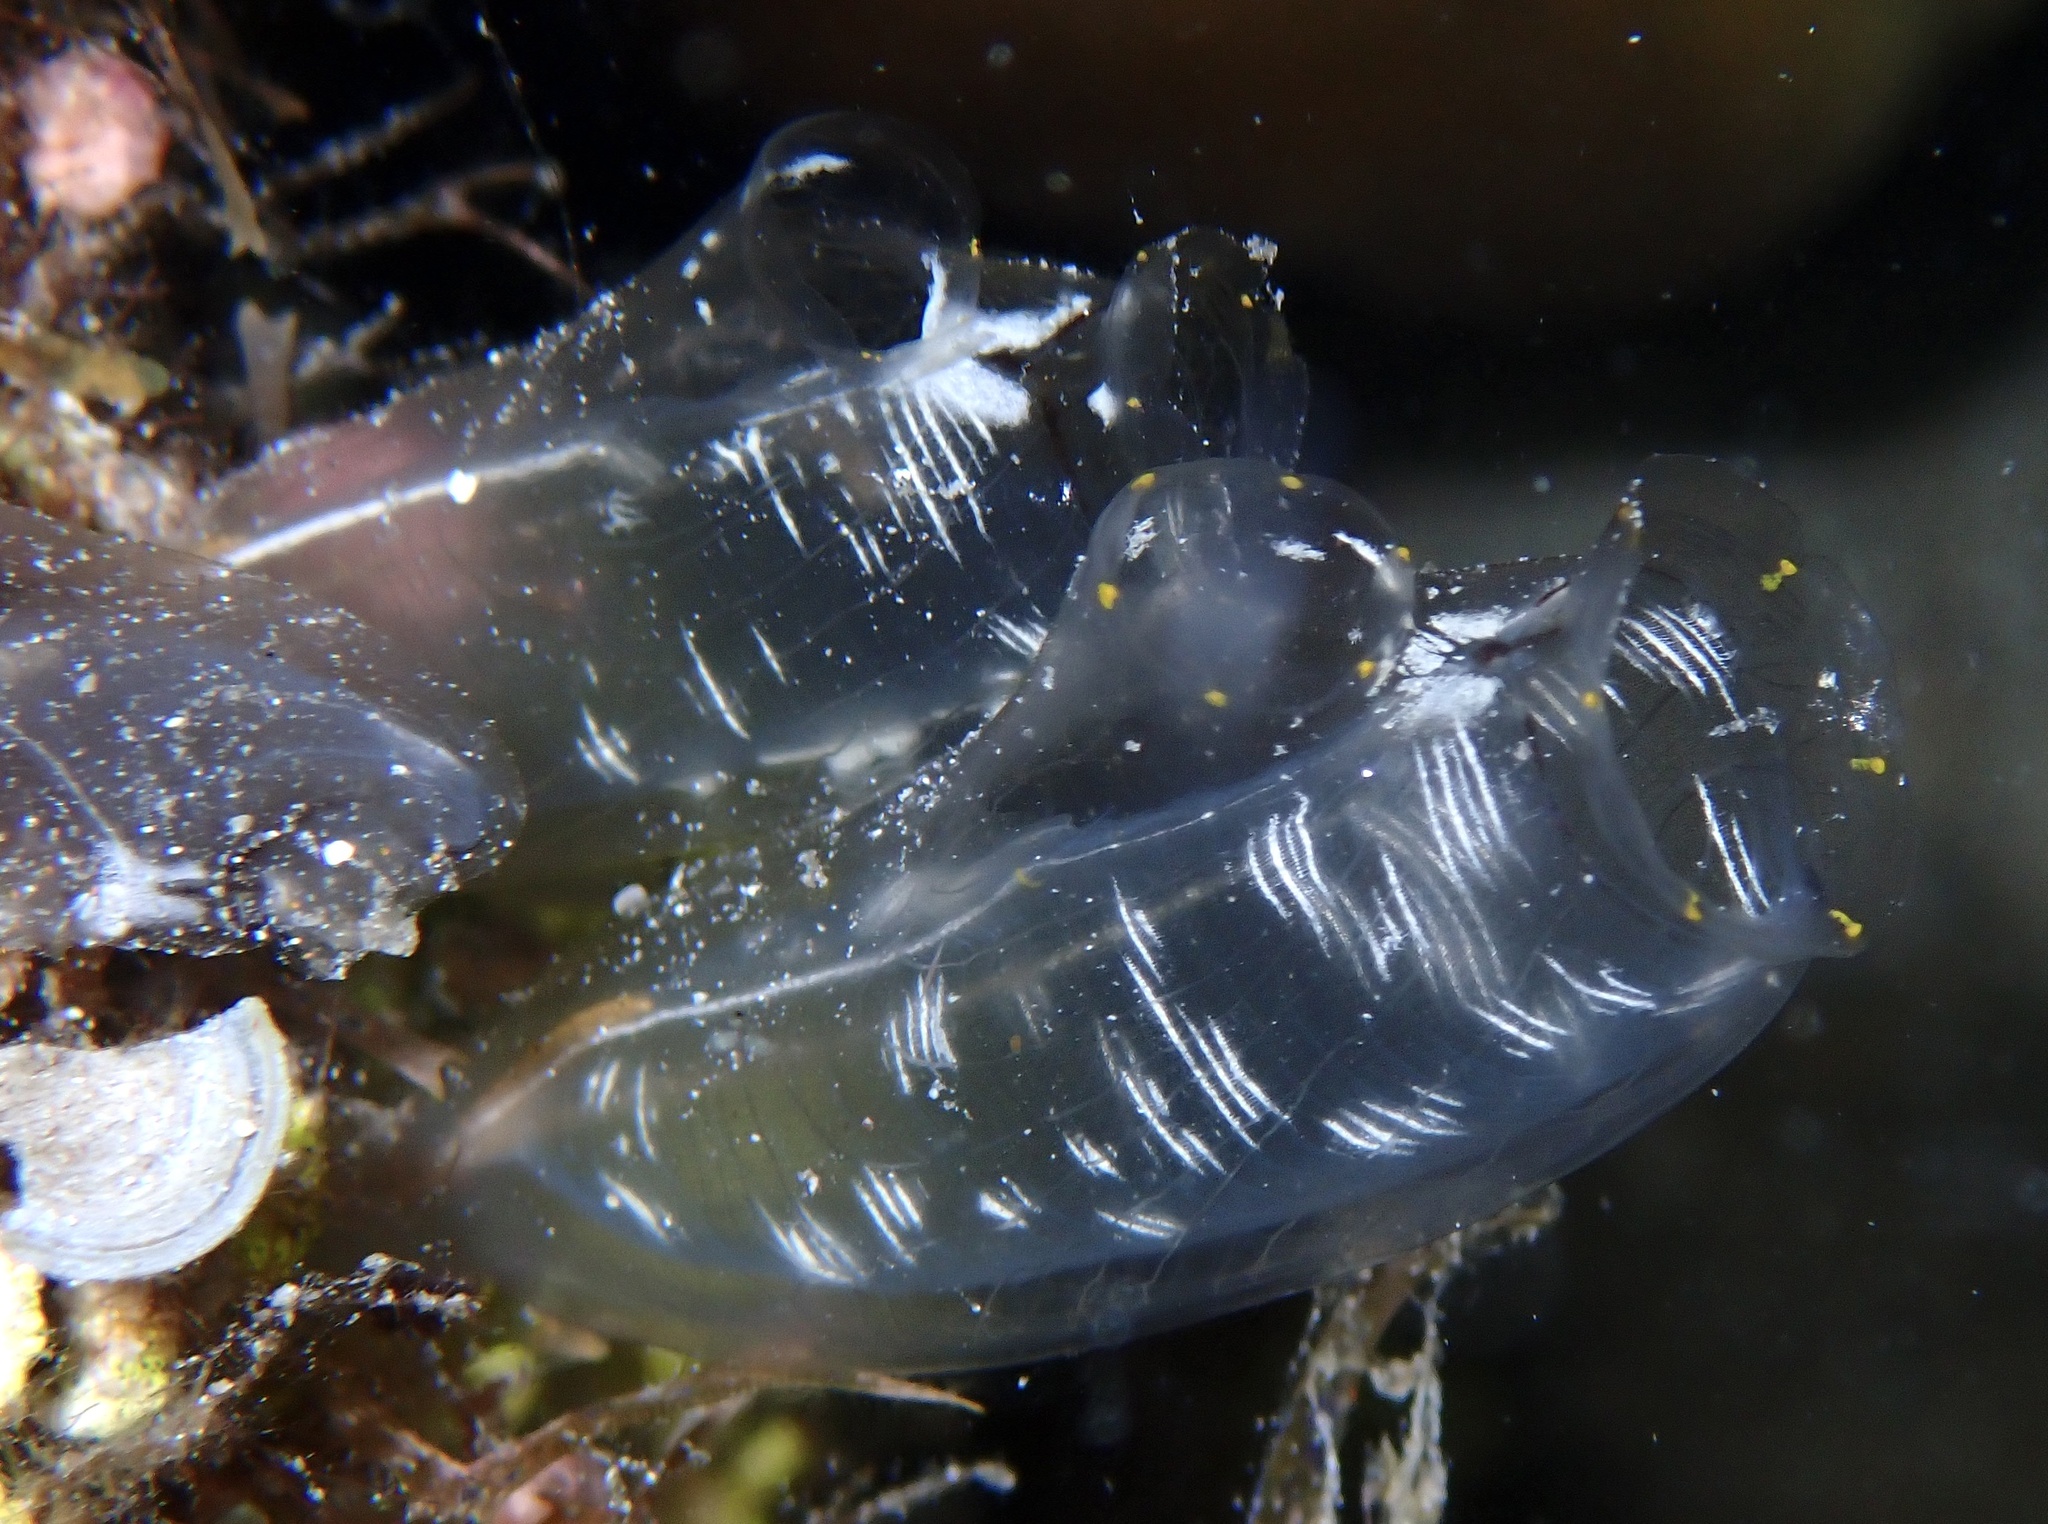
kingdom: Animalia
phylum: Chordata
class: Ascidiacea
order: Aplousobranchia
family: Diazonidae
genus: Rhopalaea
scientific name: Rhopalaea macrothorax
